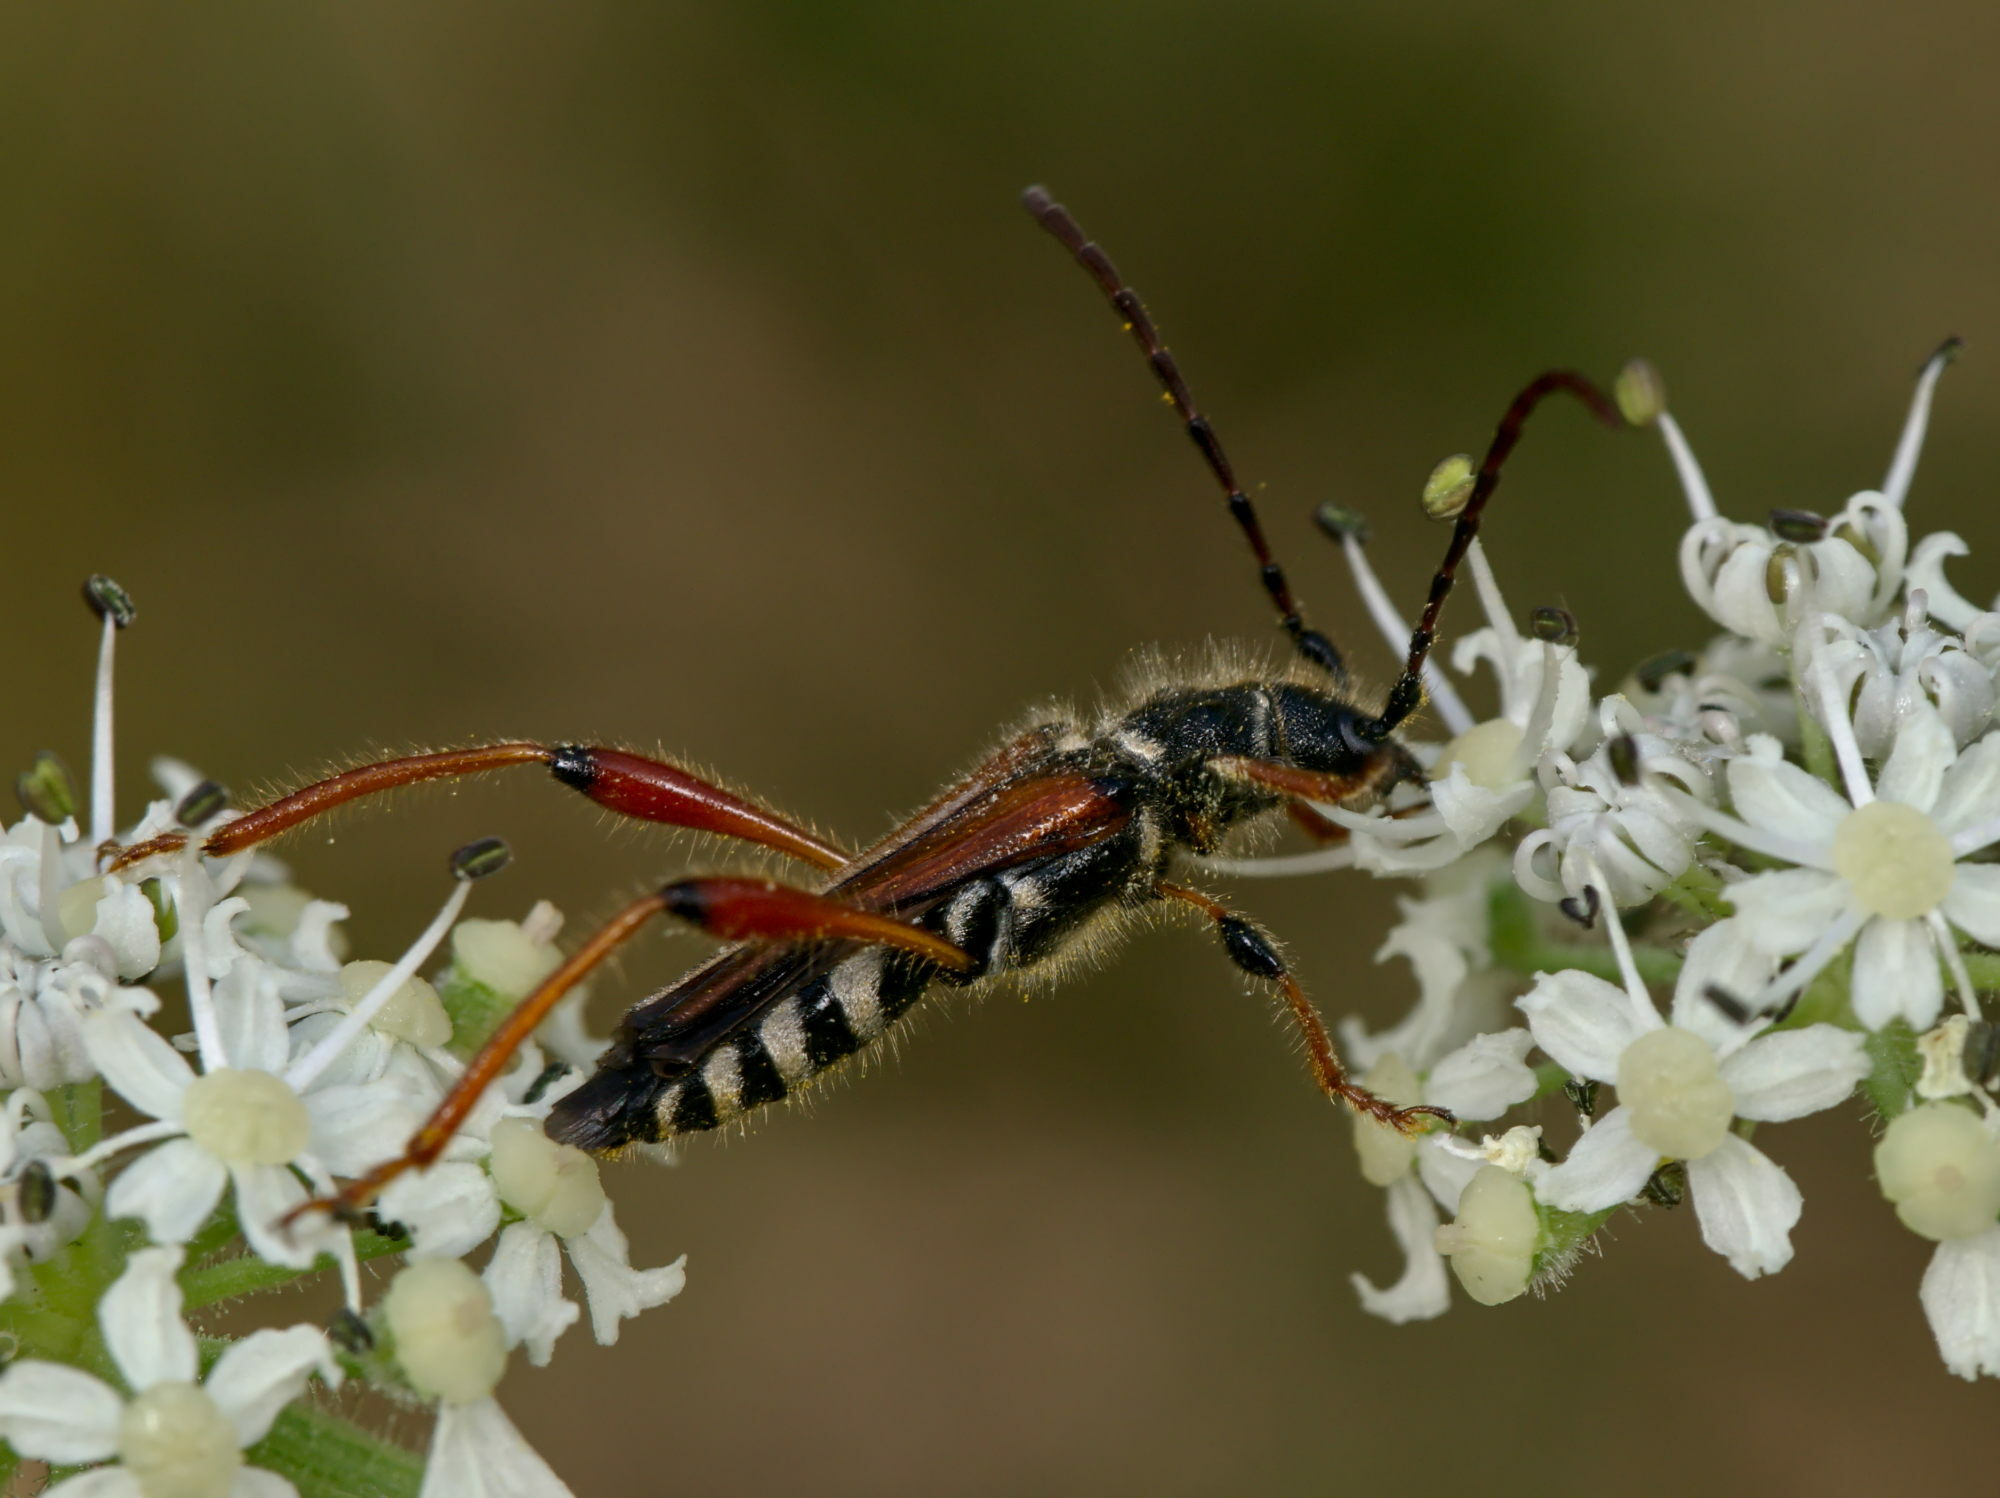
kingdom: Animalia
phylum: Arthropoda
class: Insecta
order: Coleoptera
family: Cerambycidae
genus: Stenopterus
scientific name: Stenopterus rufus
